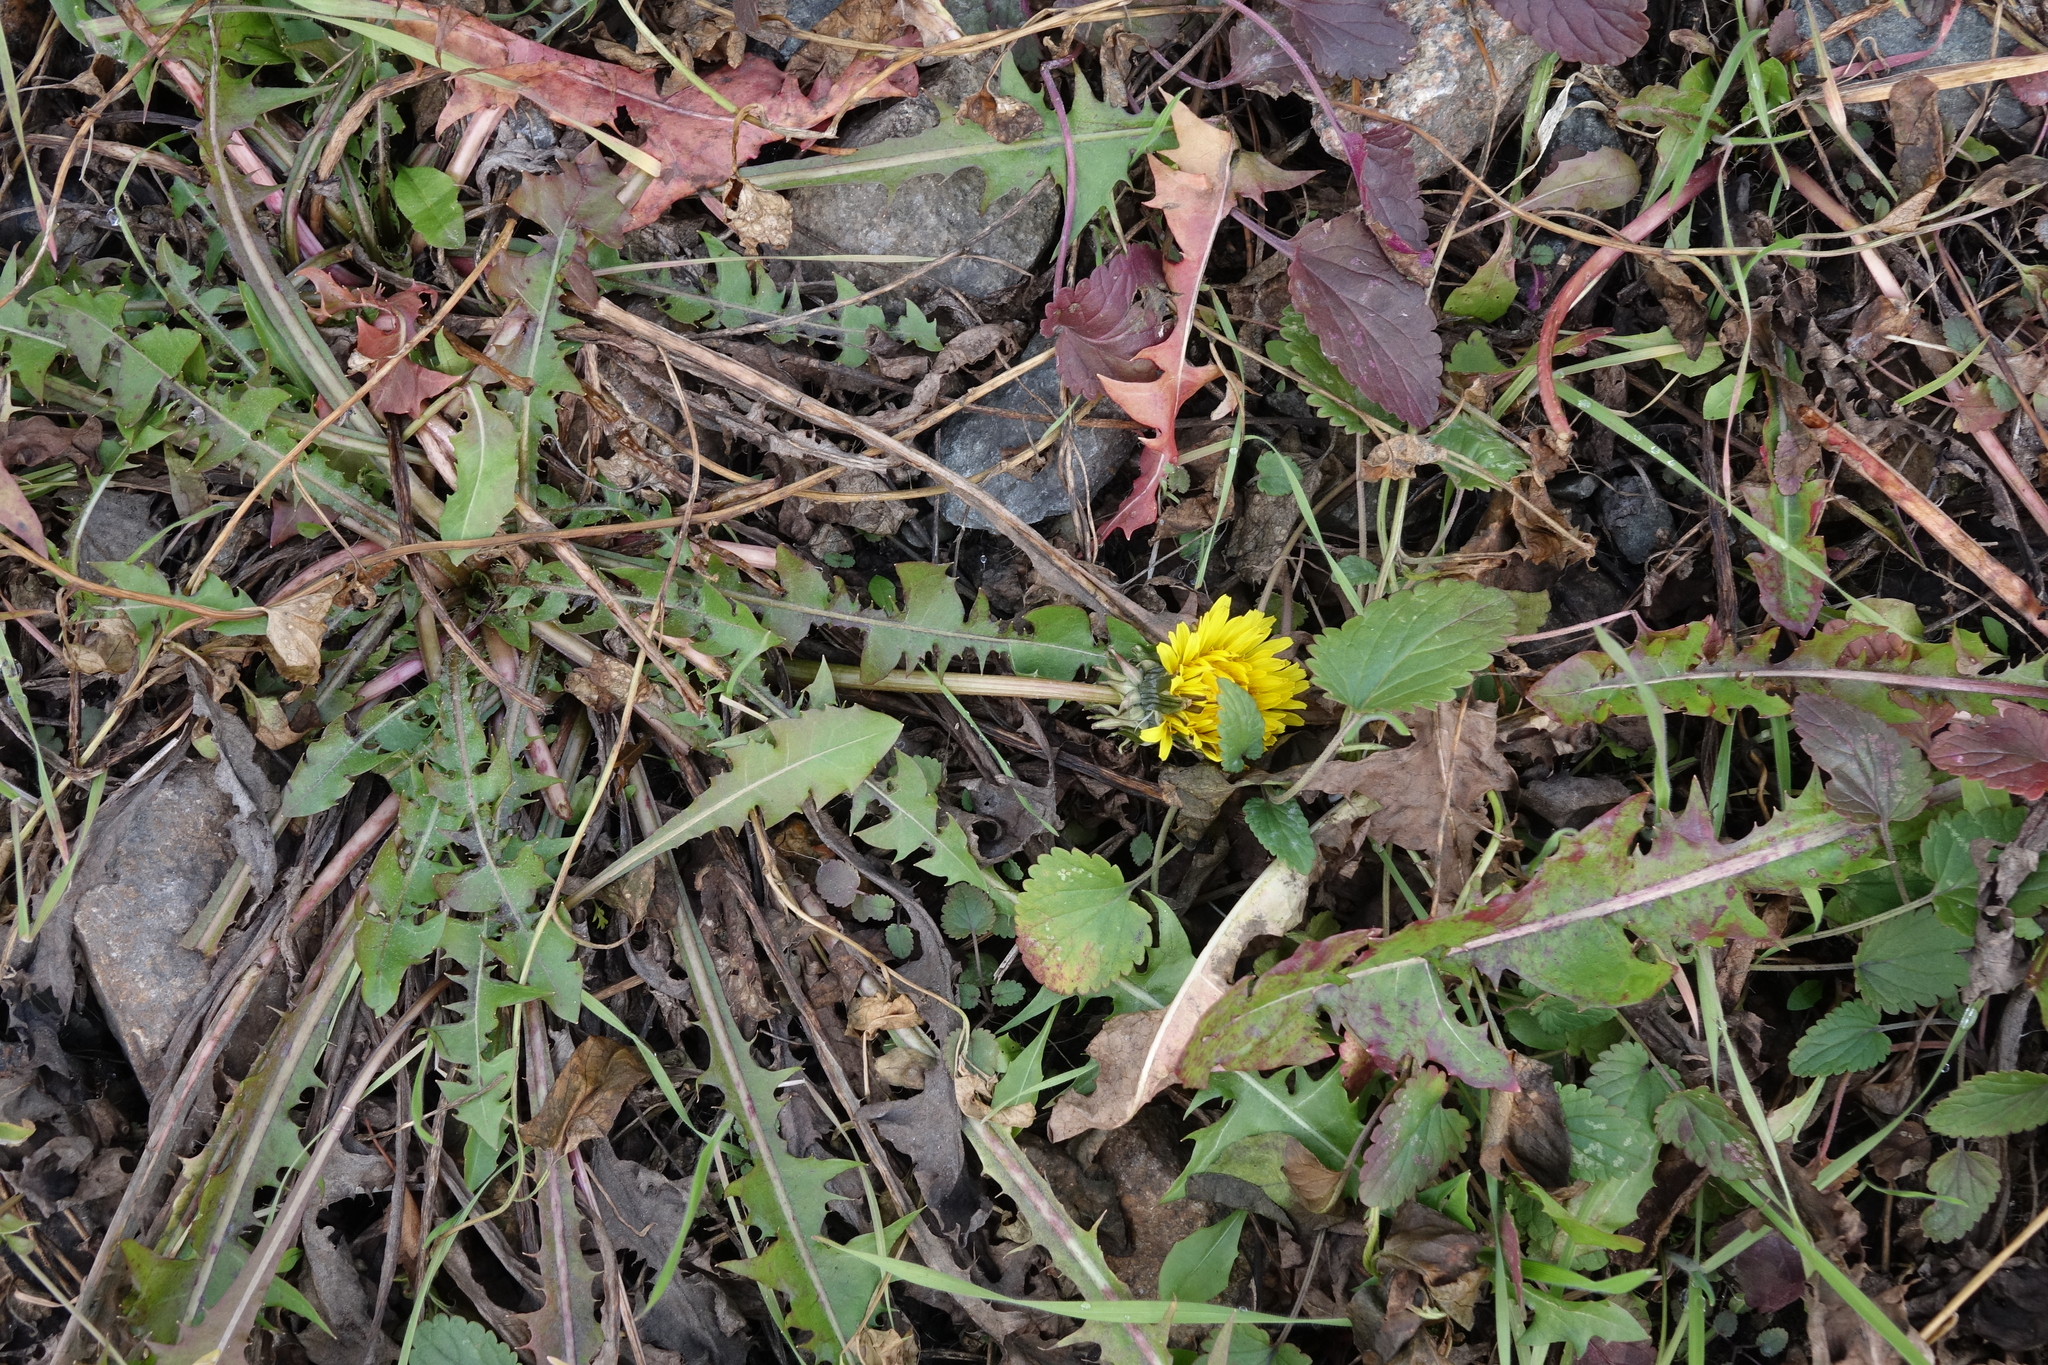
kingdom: Plantae
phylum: Tracheophyta
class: Magnoliopsida
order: Asterales
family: Asteraceae
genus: Taraxacum
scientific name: Taraxacum officinale
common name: Common dandelion
